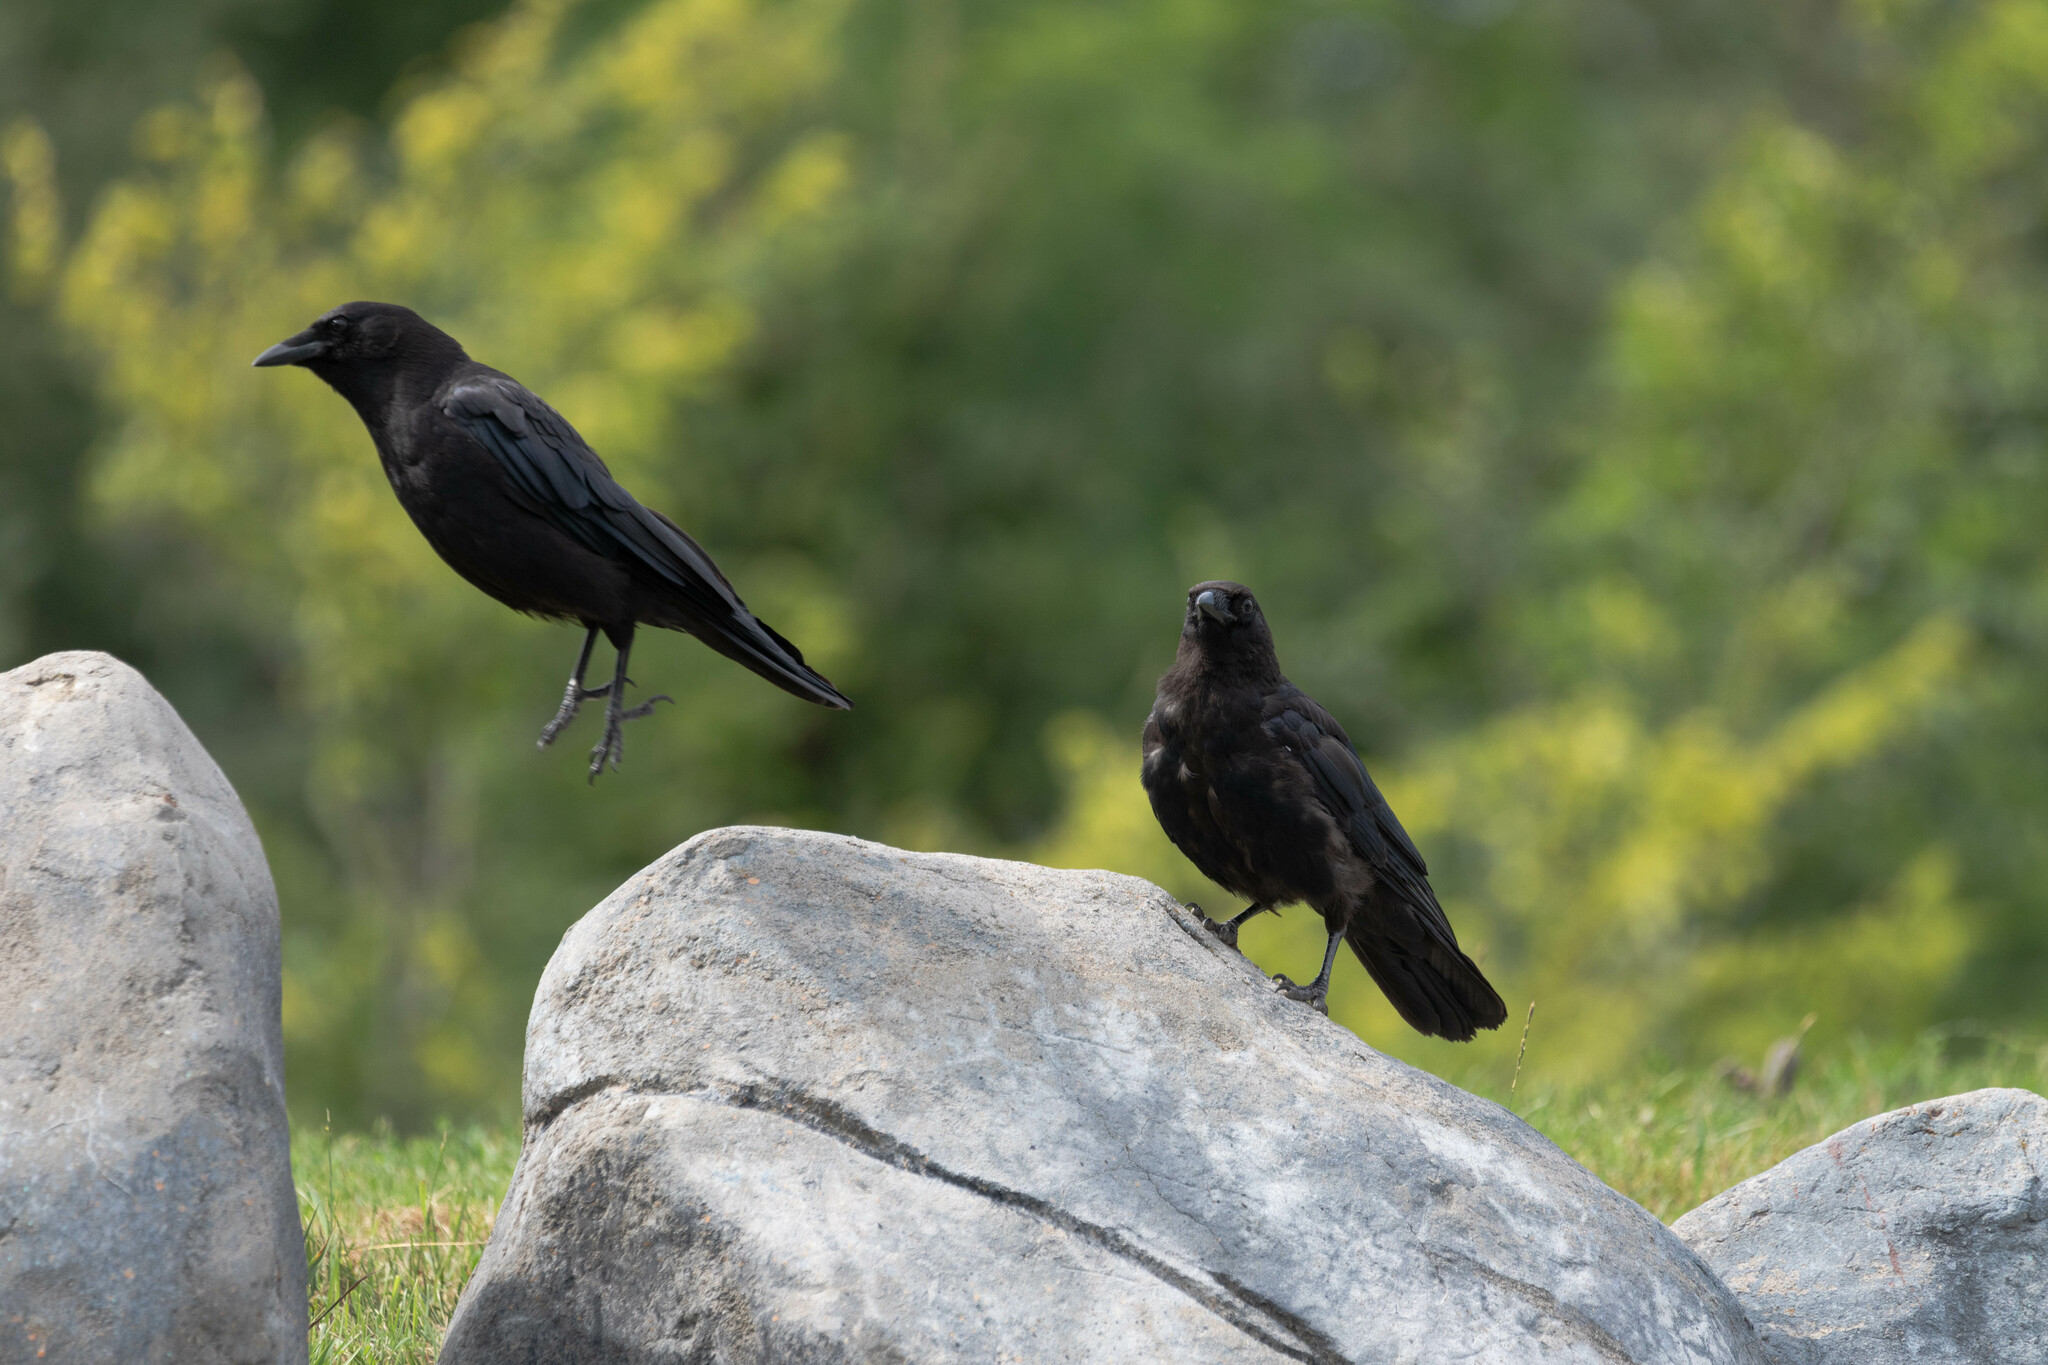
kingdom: Animalia
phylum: Chordata
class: Aves
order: Passeriformes
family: Corvidae
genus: Corvus
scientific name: Corvus brachyrhynchos
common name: American crow
